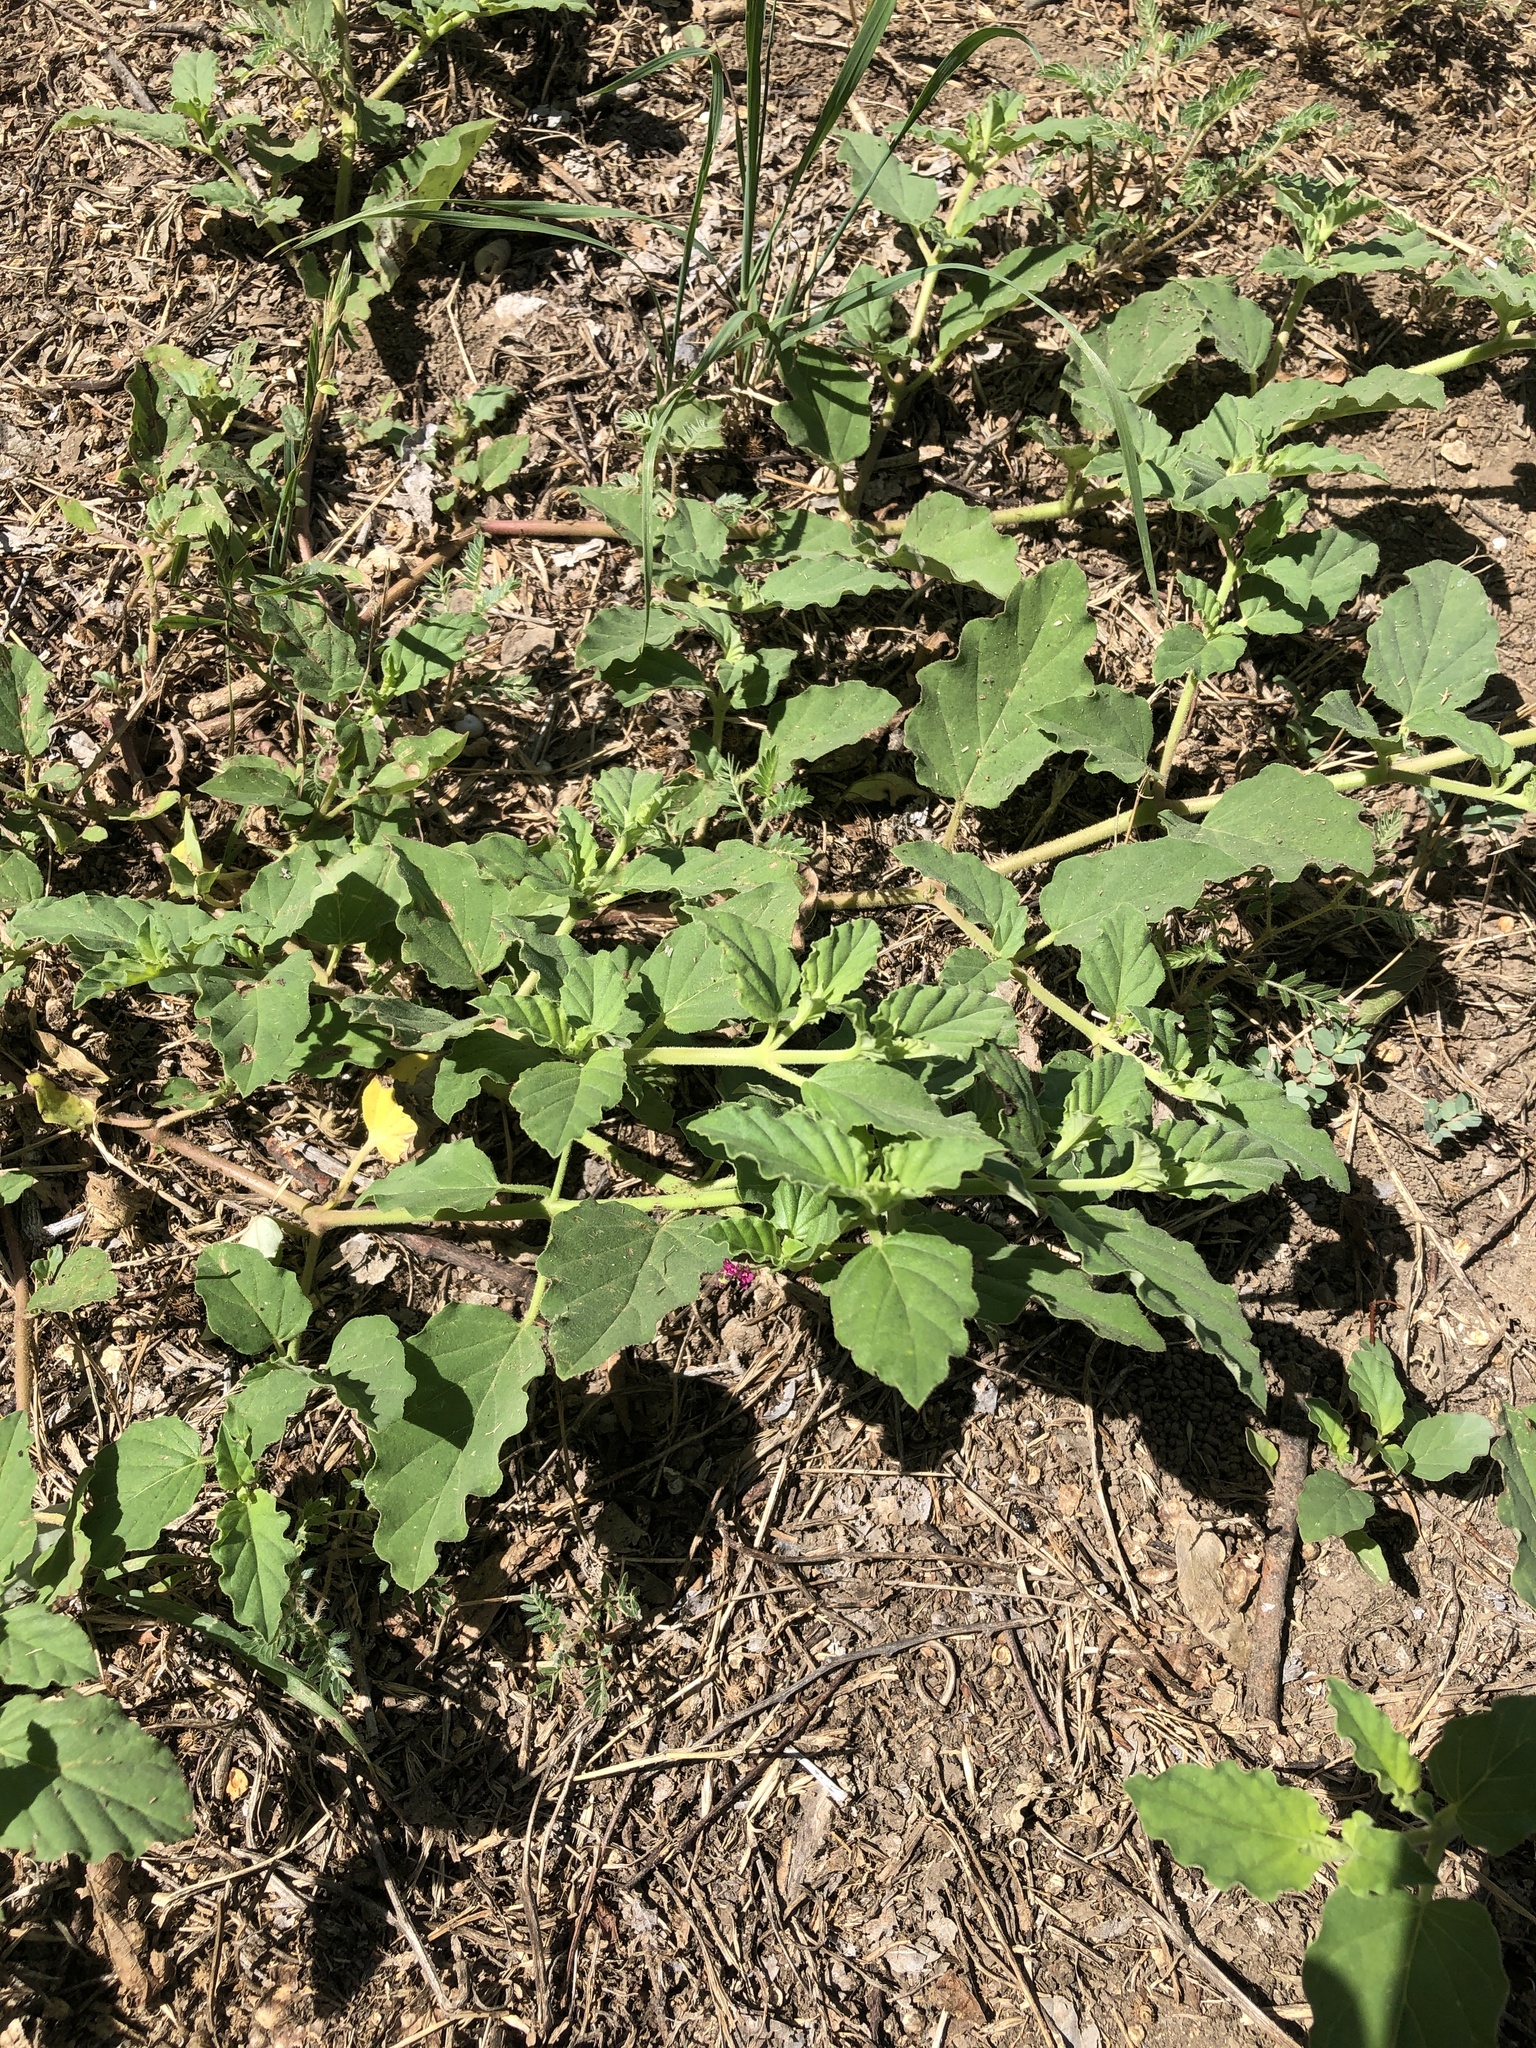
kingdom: Plantae
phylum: Tracheophyta
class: Magnoliopsida
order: Caryophyllales
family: Nyctaginaceae
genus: Boerhavia
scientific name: Boerhavia coccinea
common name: Scarlet spiderling
